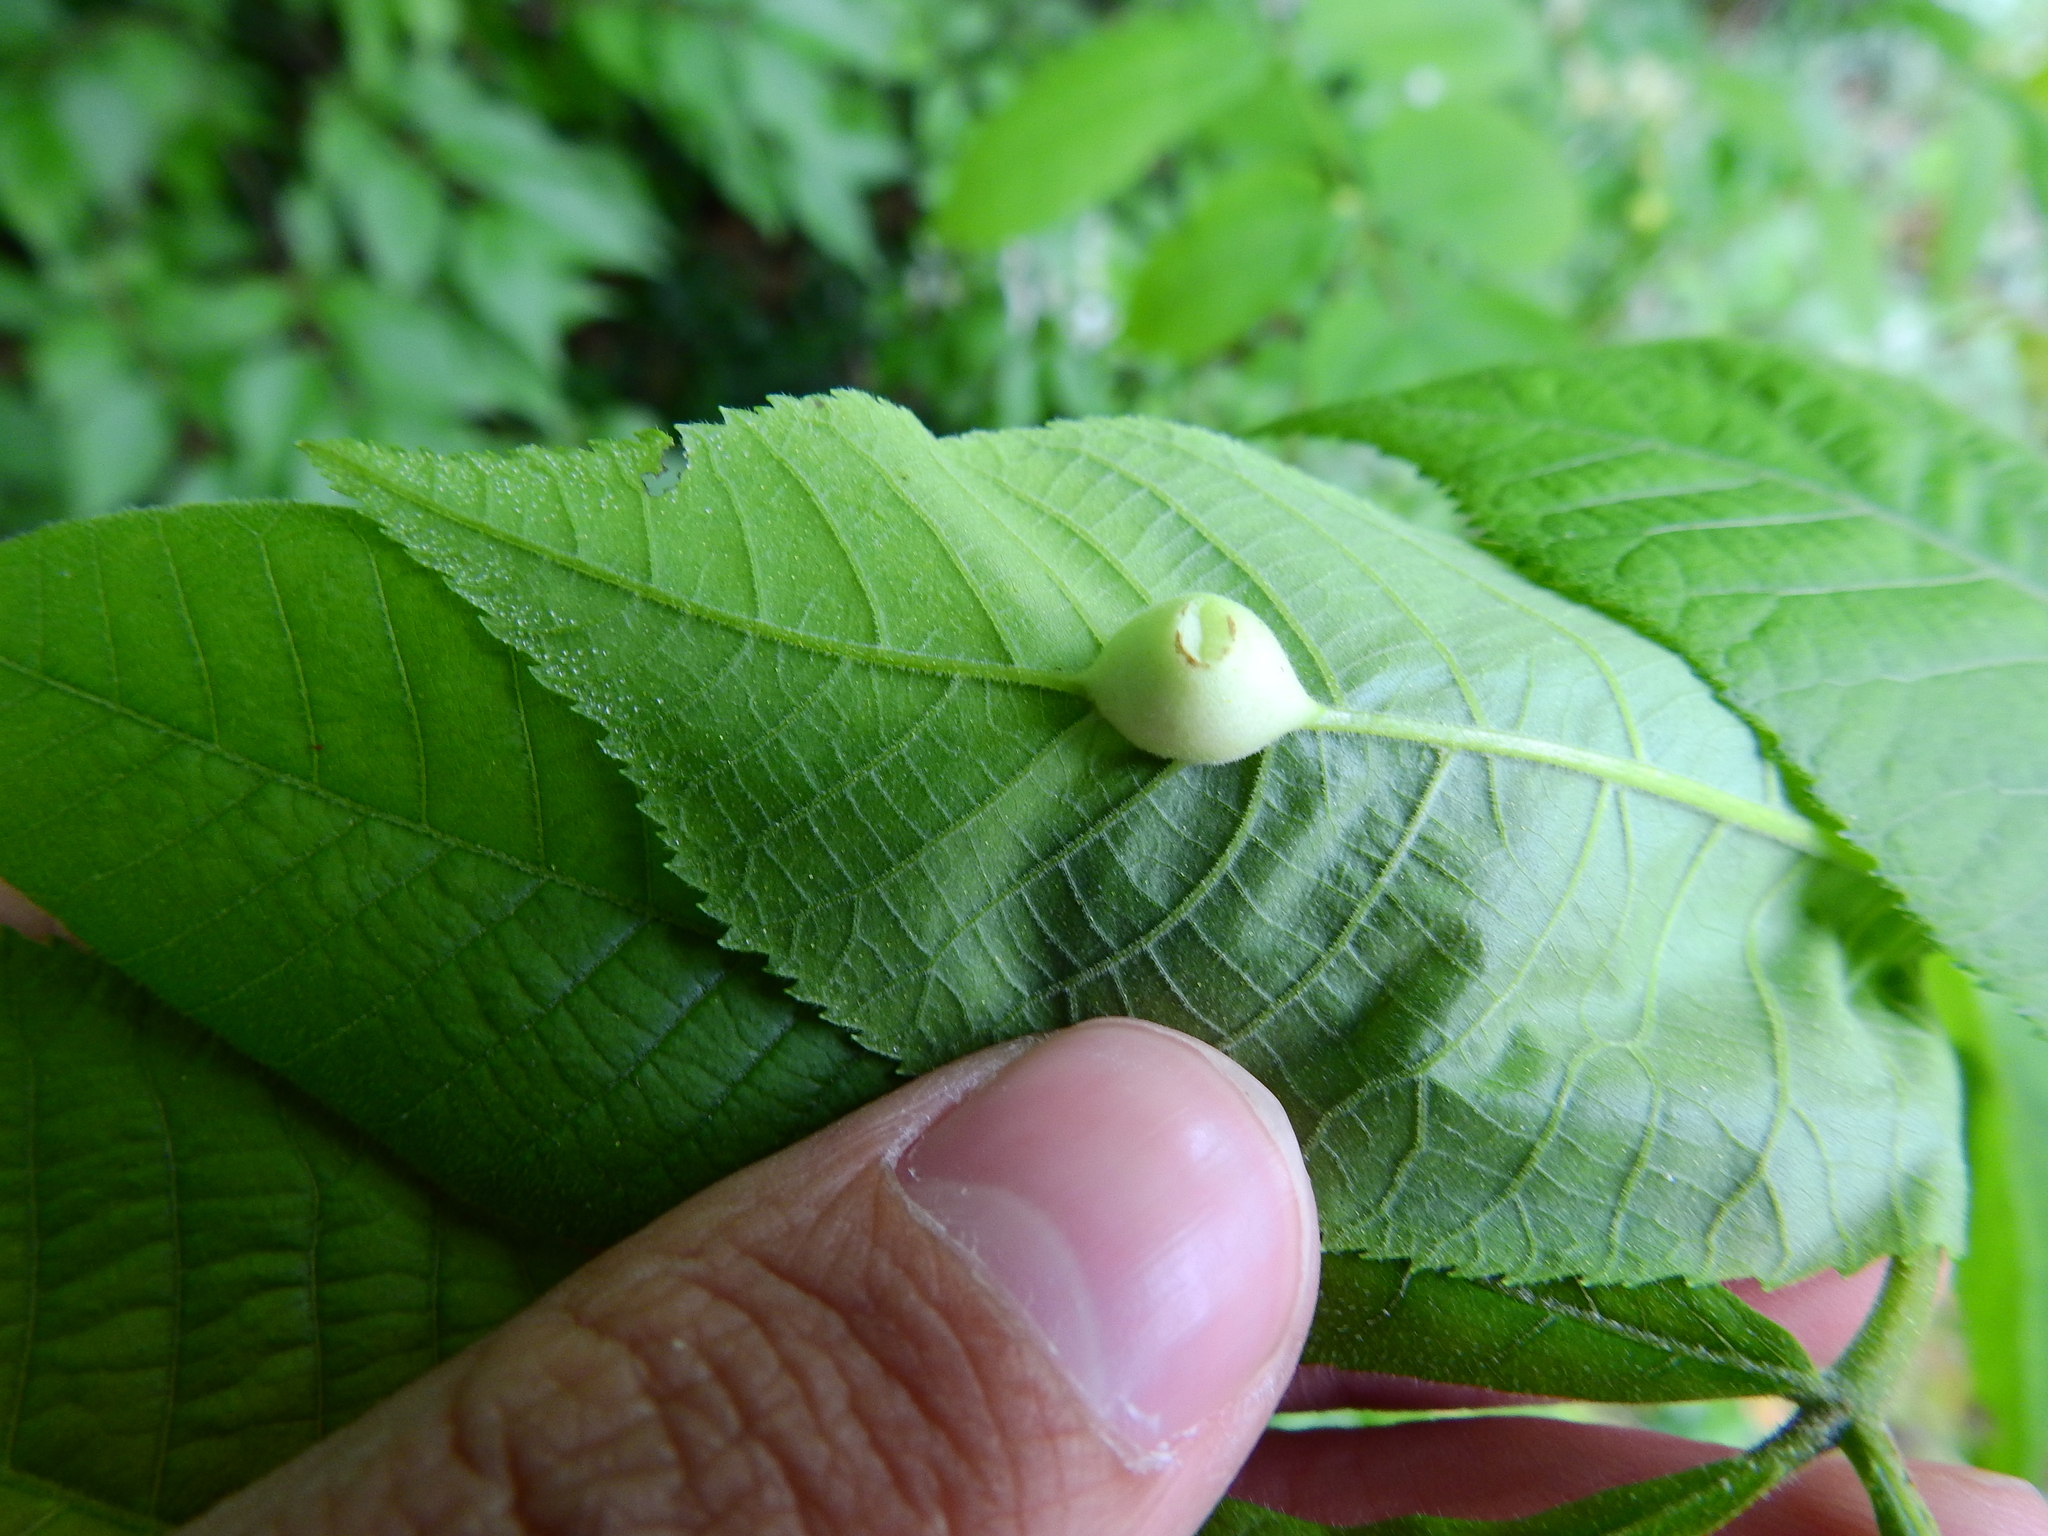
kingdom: Animalia
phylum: Arthropoda
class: Insecta
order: Hemiptera
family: Phylloxeridae
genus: Phylloxera
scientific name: Phylloxera
